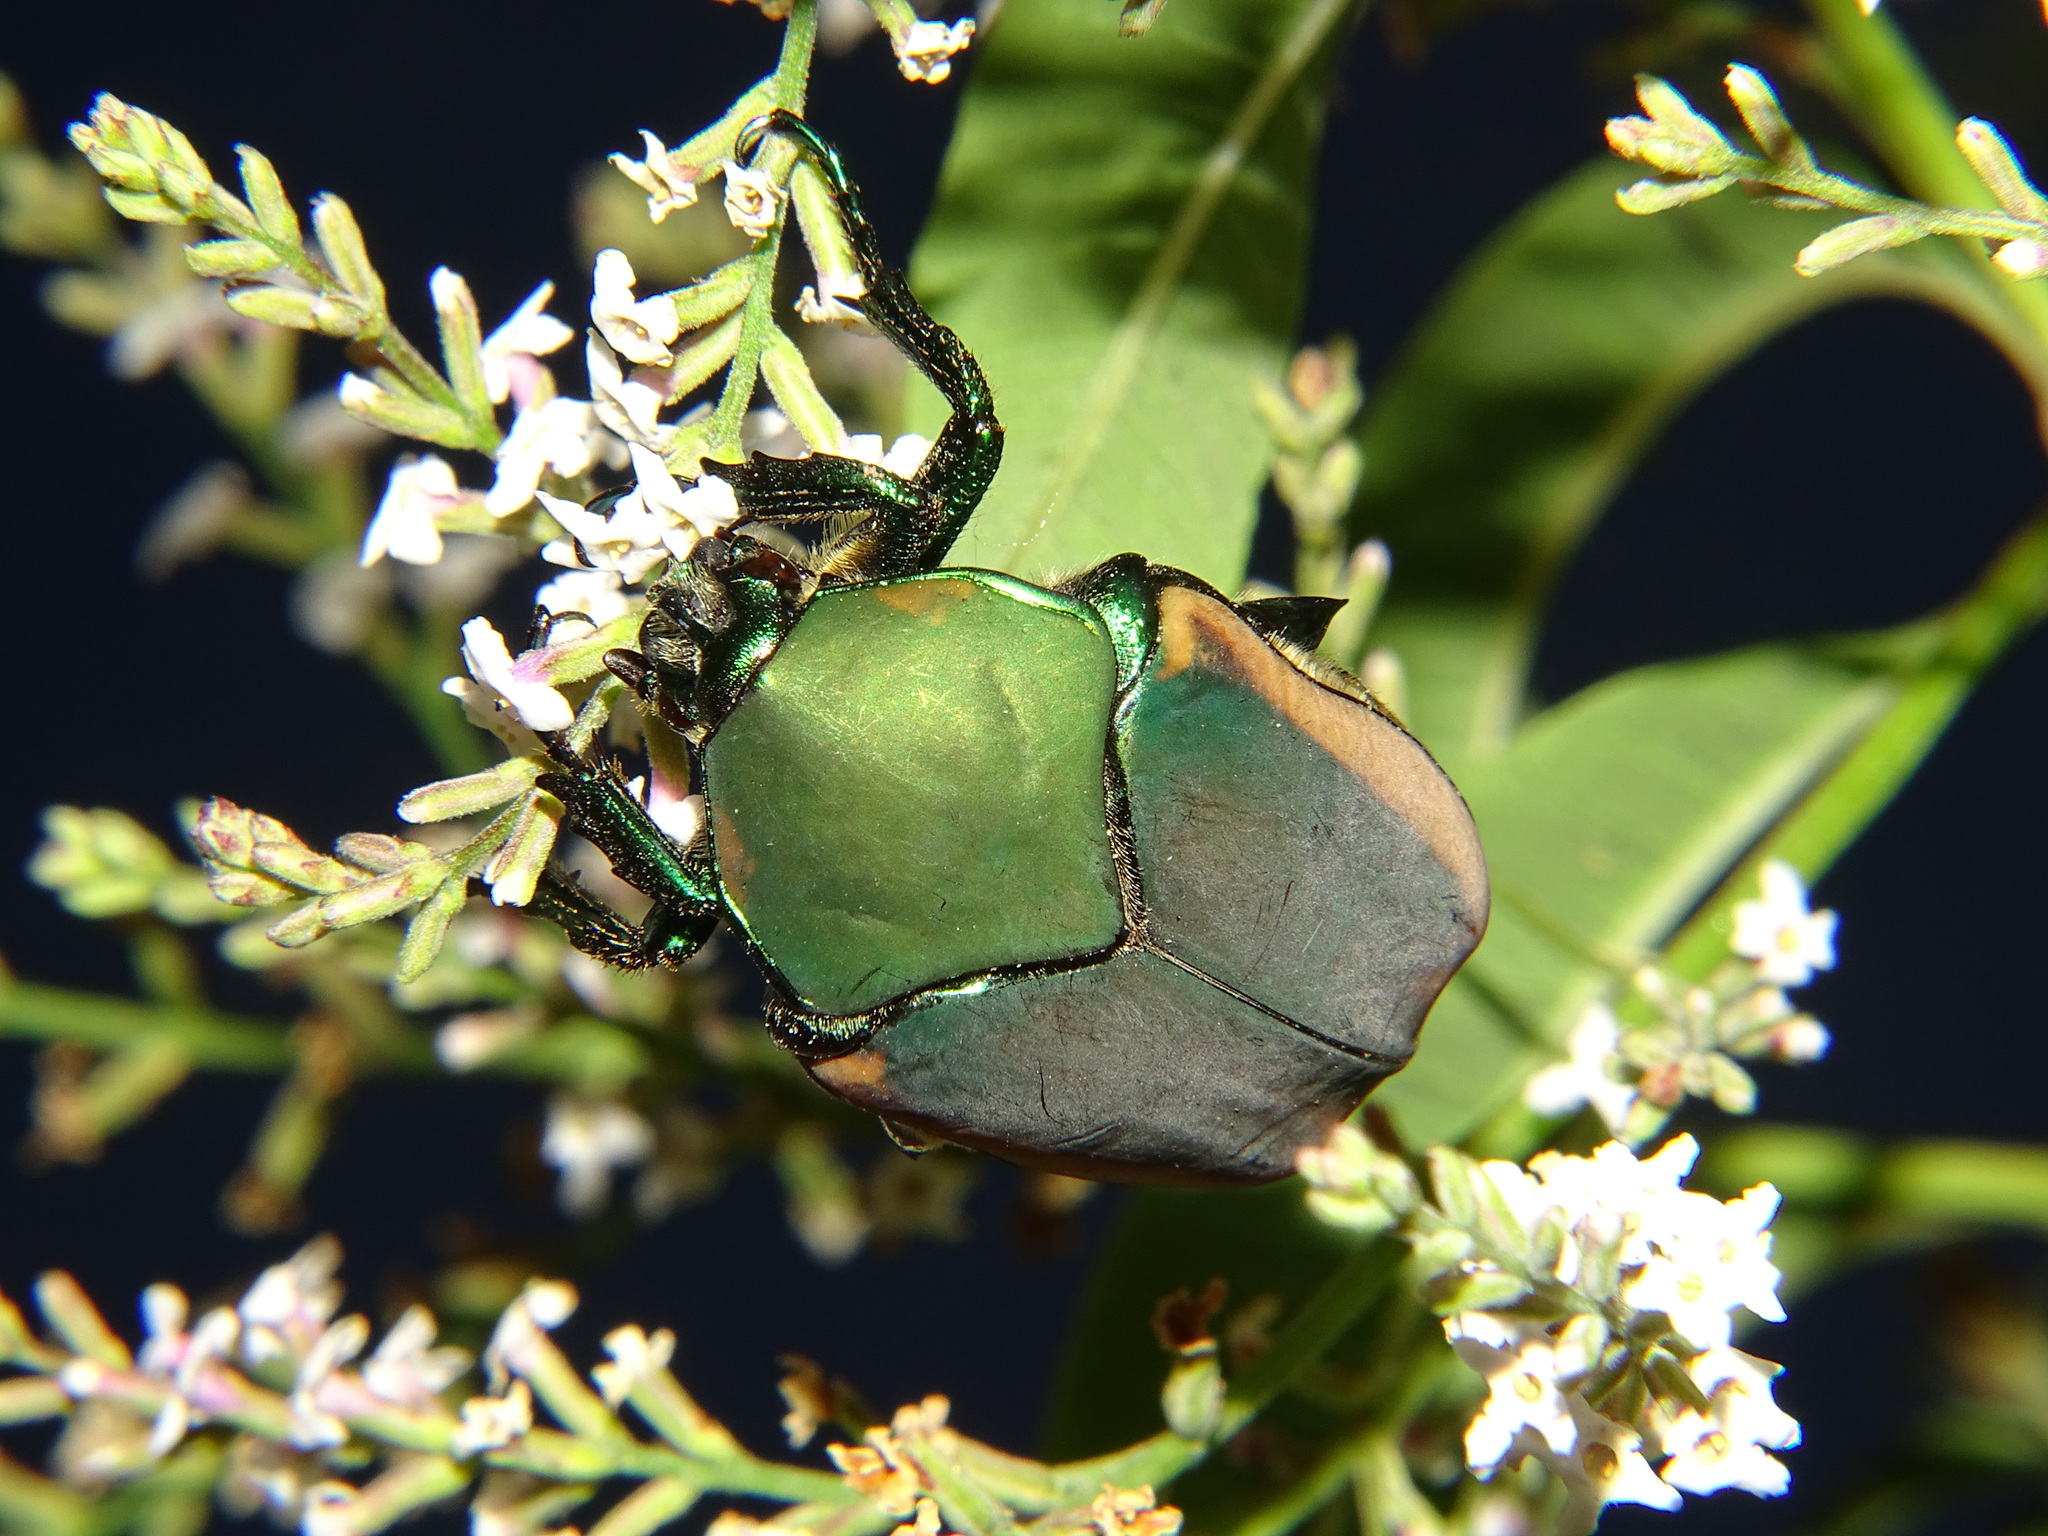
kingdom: Animalia
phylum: Arthropoda
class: Insecta
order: Coleoptera
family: Scarabaeidae
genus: Cotinis
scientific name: Cotinis mutabilis
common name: Figeater beetle
